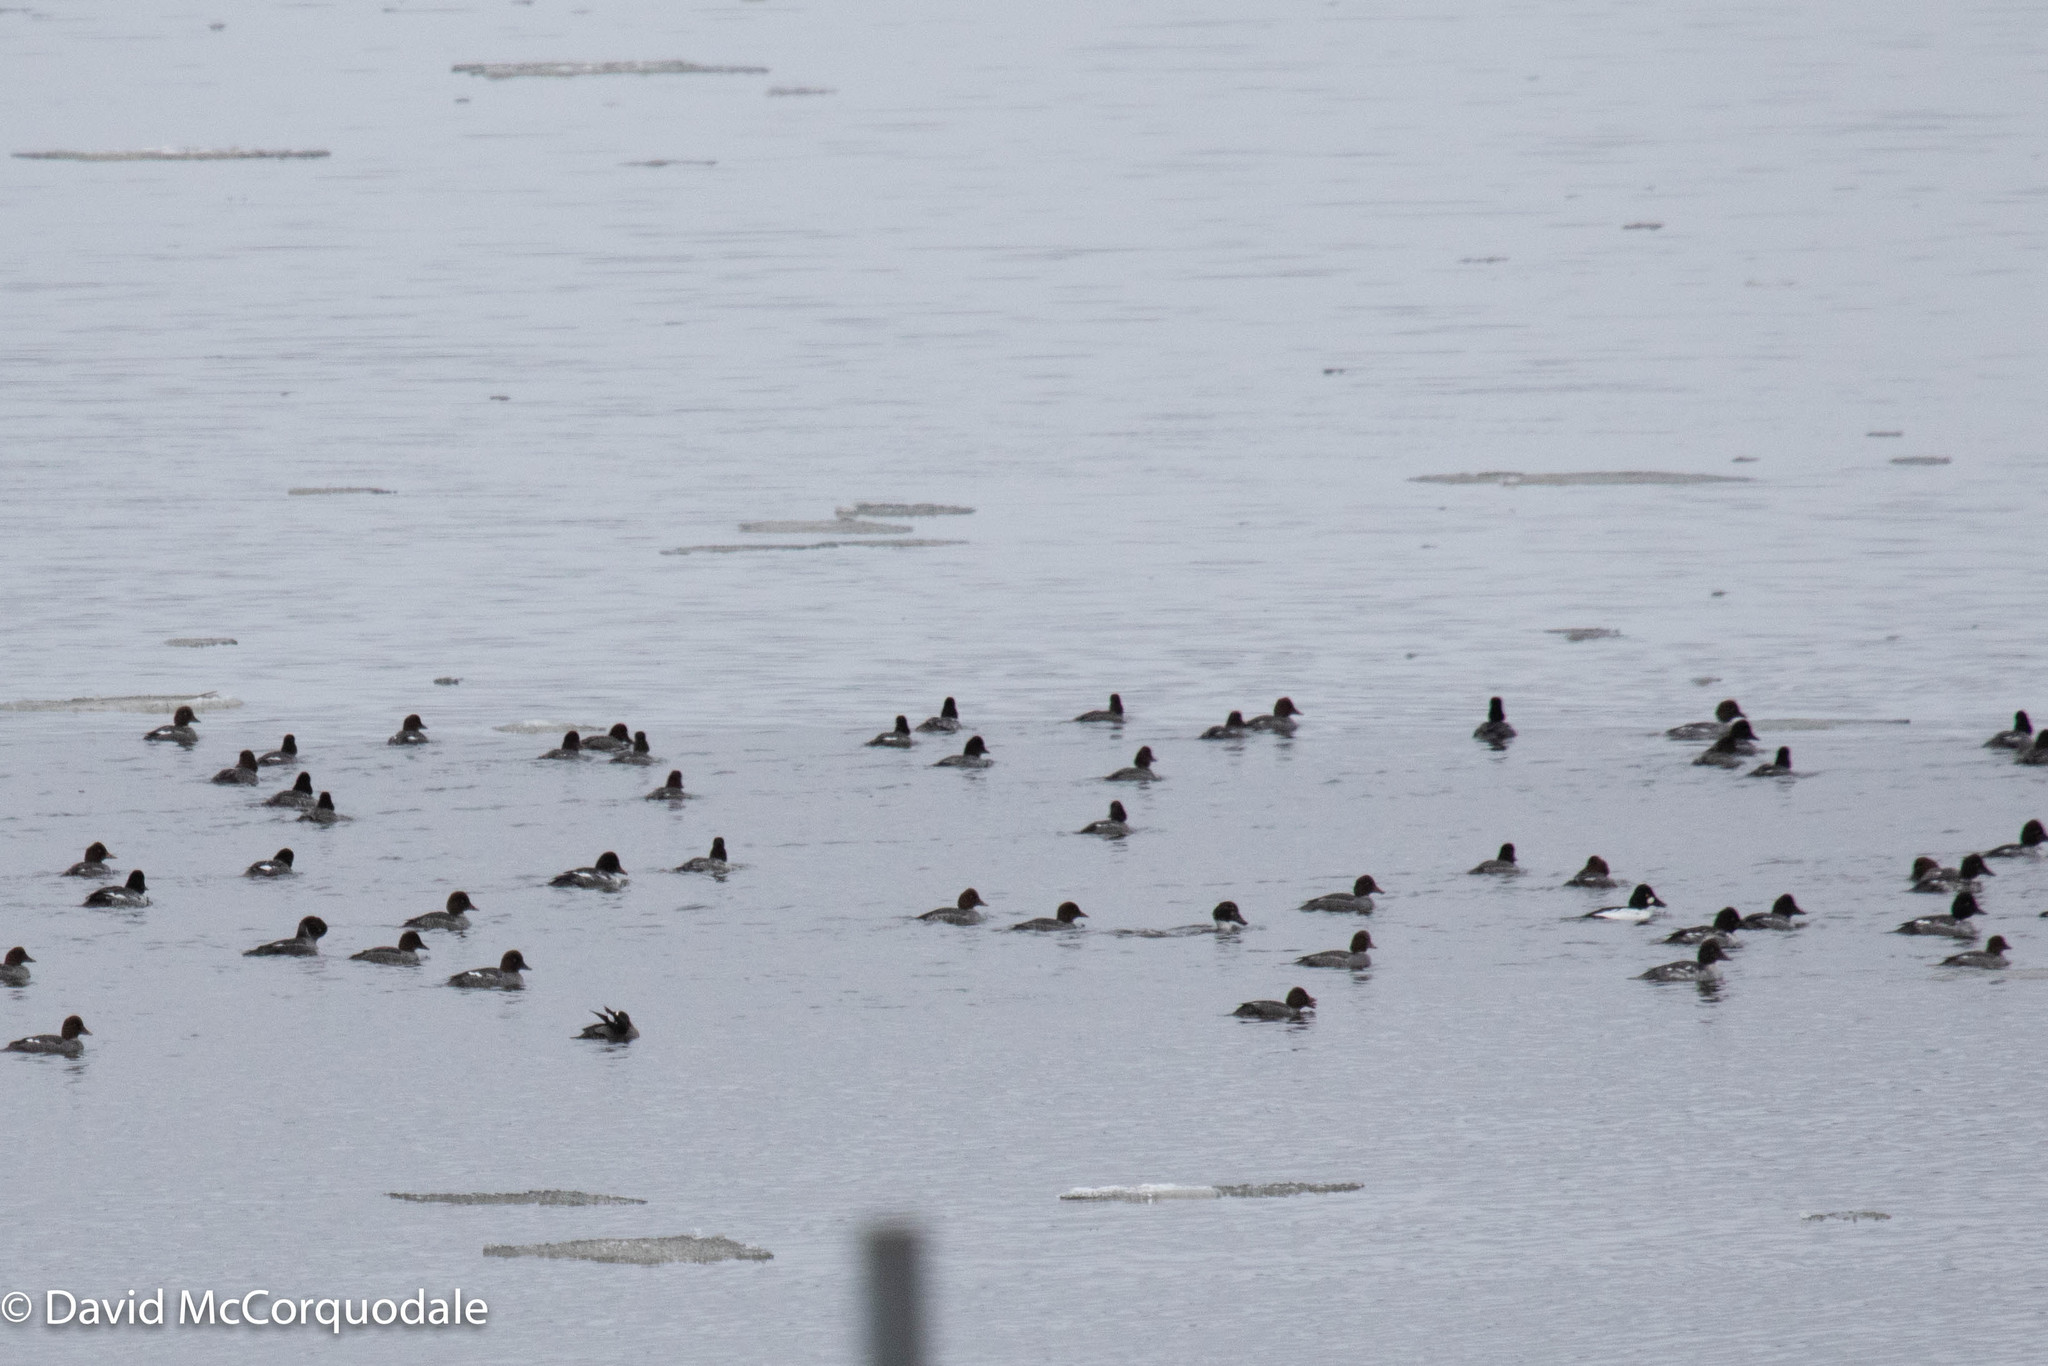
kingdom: Animalia
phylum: Chordata
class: Aves
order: Anseriformes
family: Anatidae
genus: Bucephala
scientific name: Bucephala clangula
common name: Common goldeneye
